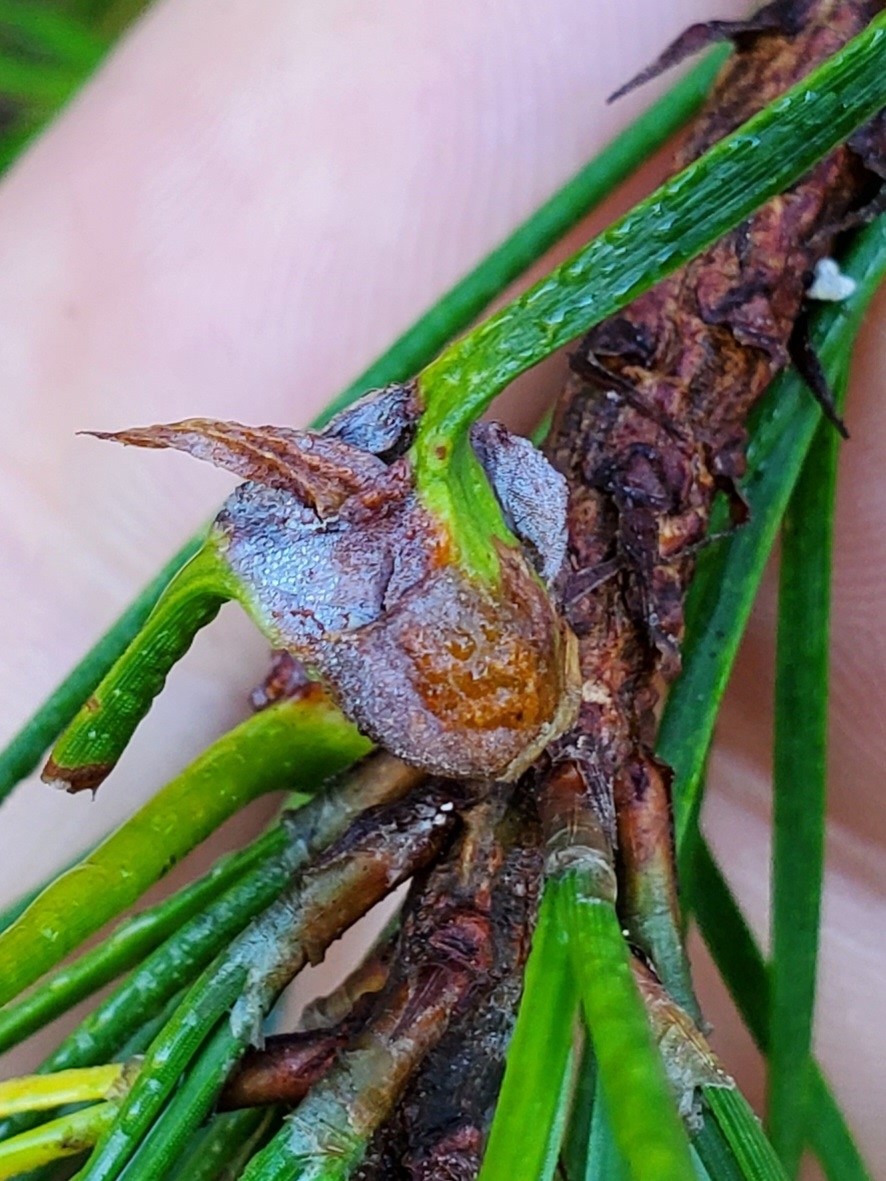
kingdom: Animalia
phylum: Arthropoda
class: Insecta
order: Diptera
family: Cecidomyiidae
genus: Thecodiplosis
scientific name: Thecodiplosis brachynteroides
